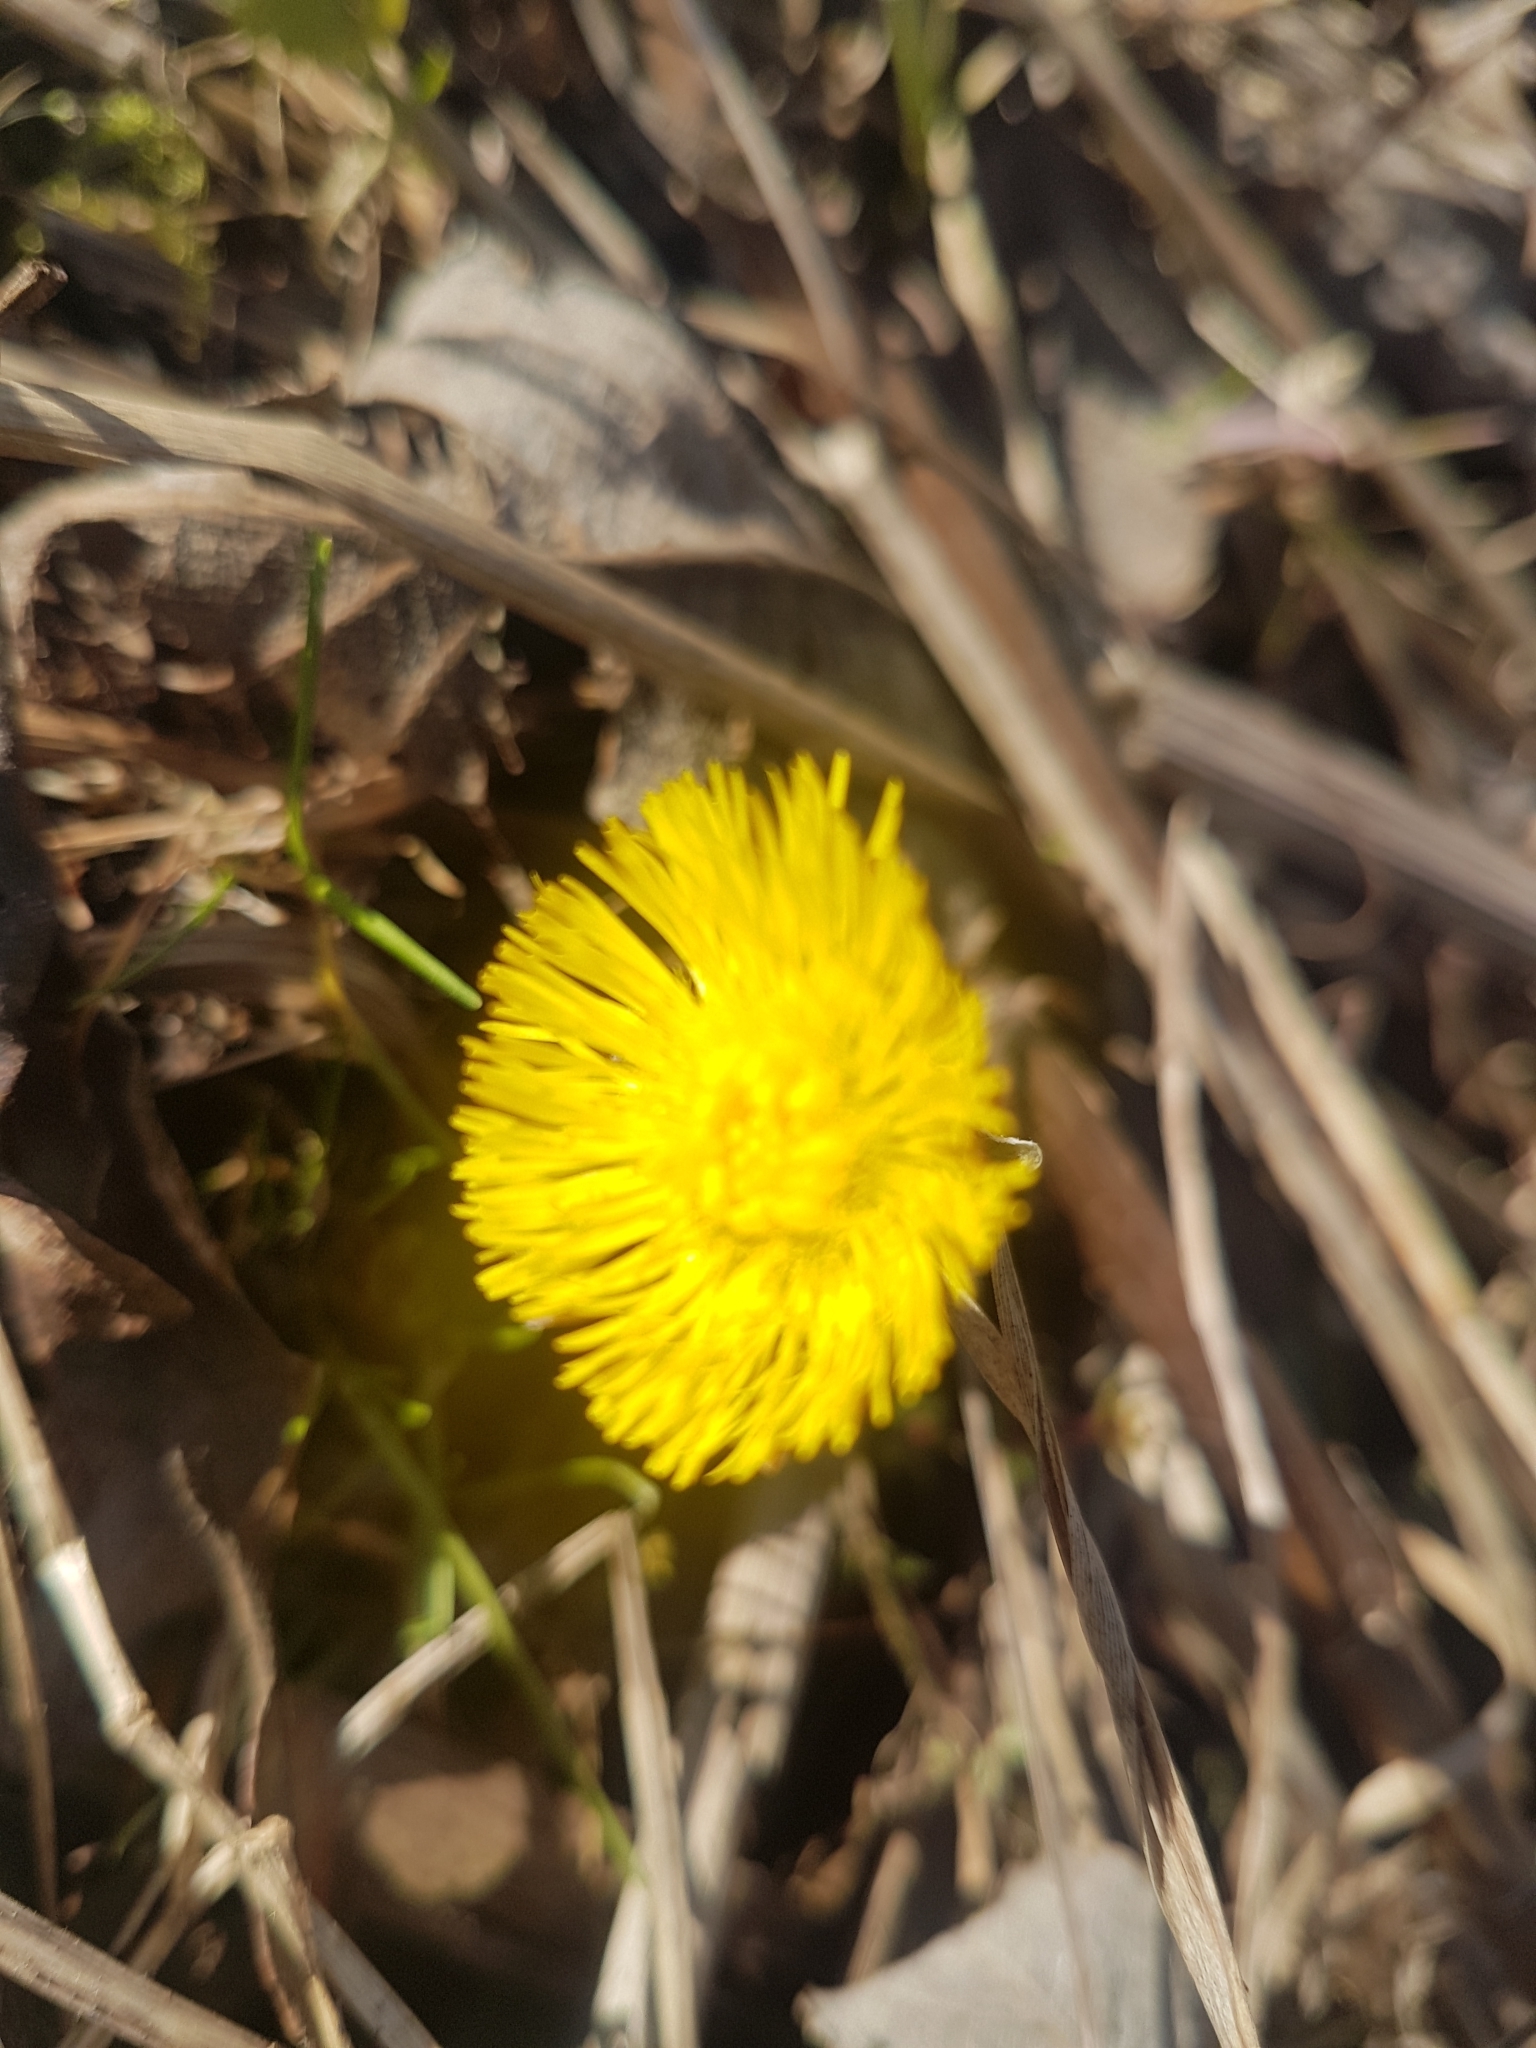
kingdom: Plantae
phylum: Tracheophyta
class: Magnoliopsida
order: Asterales
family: Asteraceae
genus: Tussilago
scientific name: Tussilago farfara
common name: Coltsfoot
